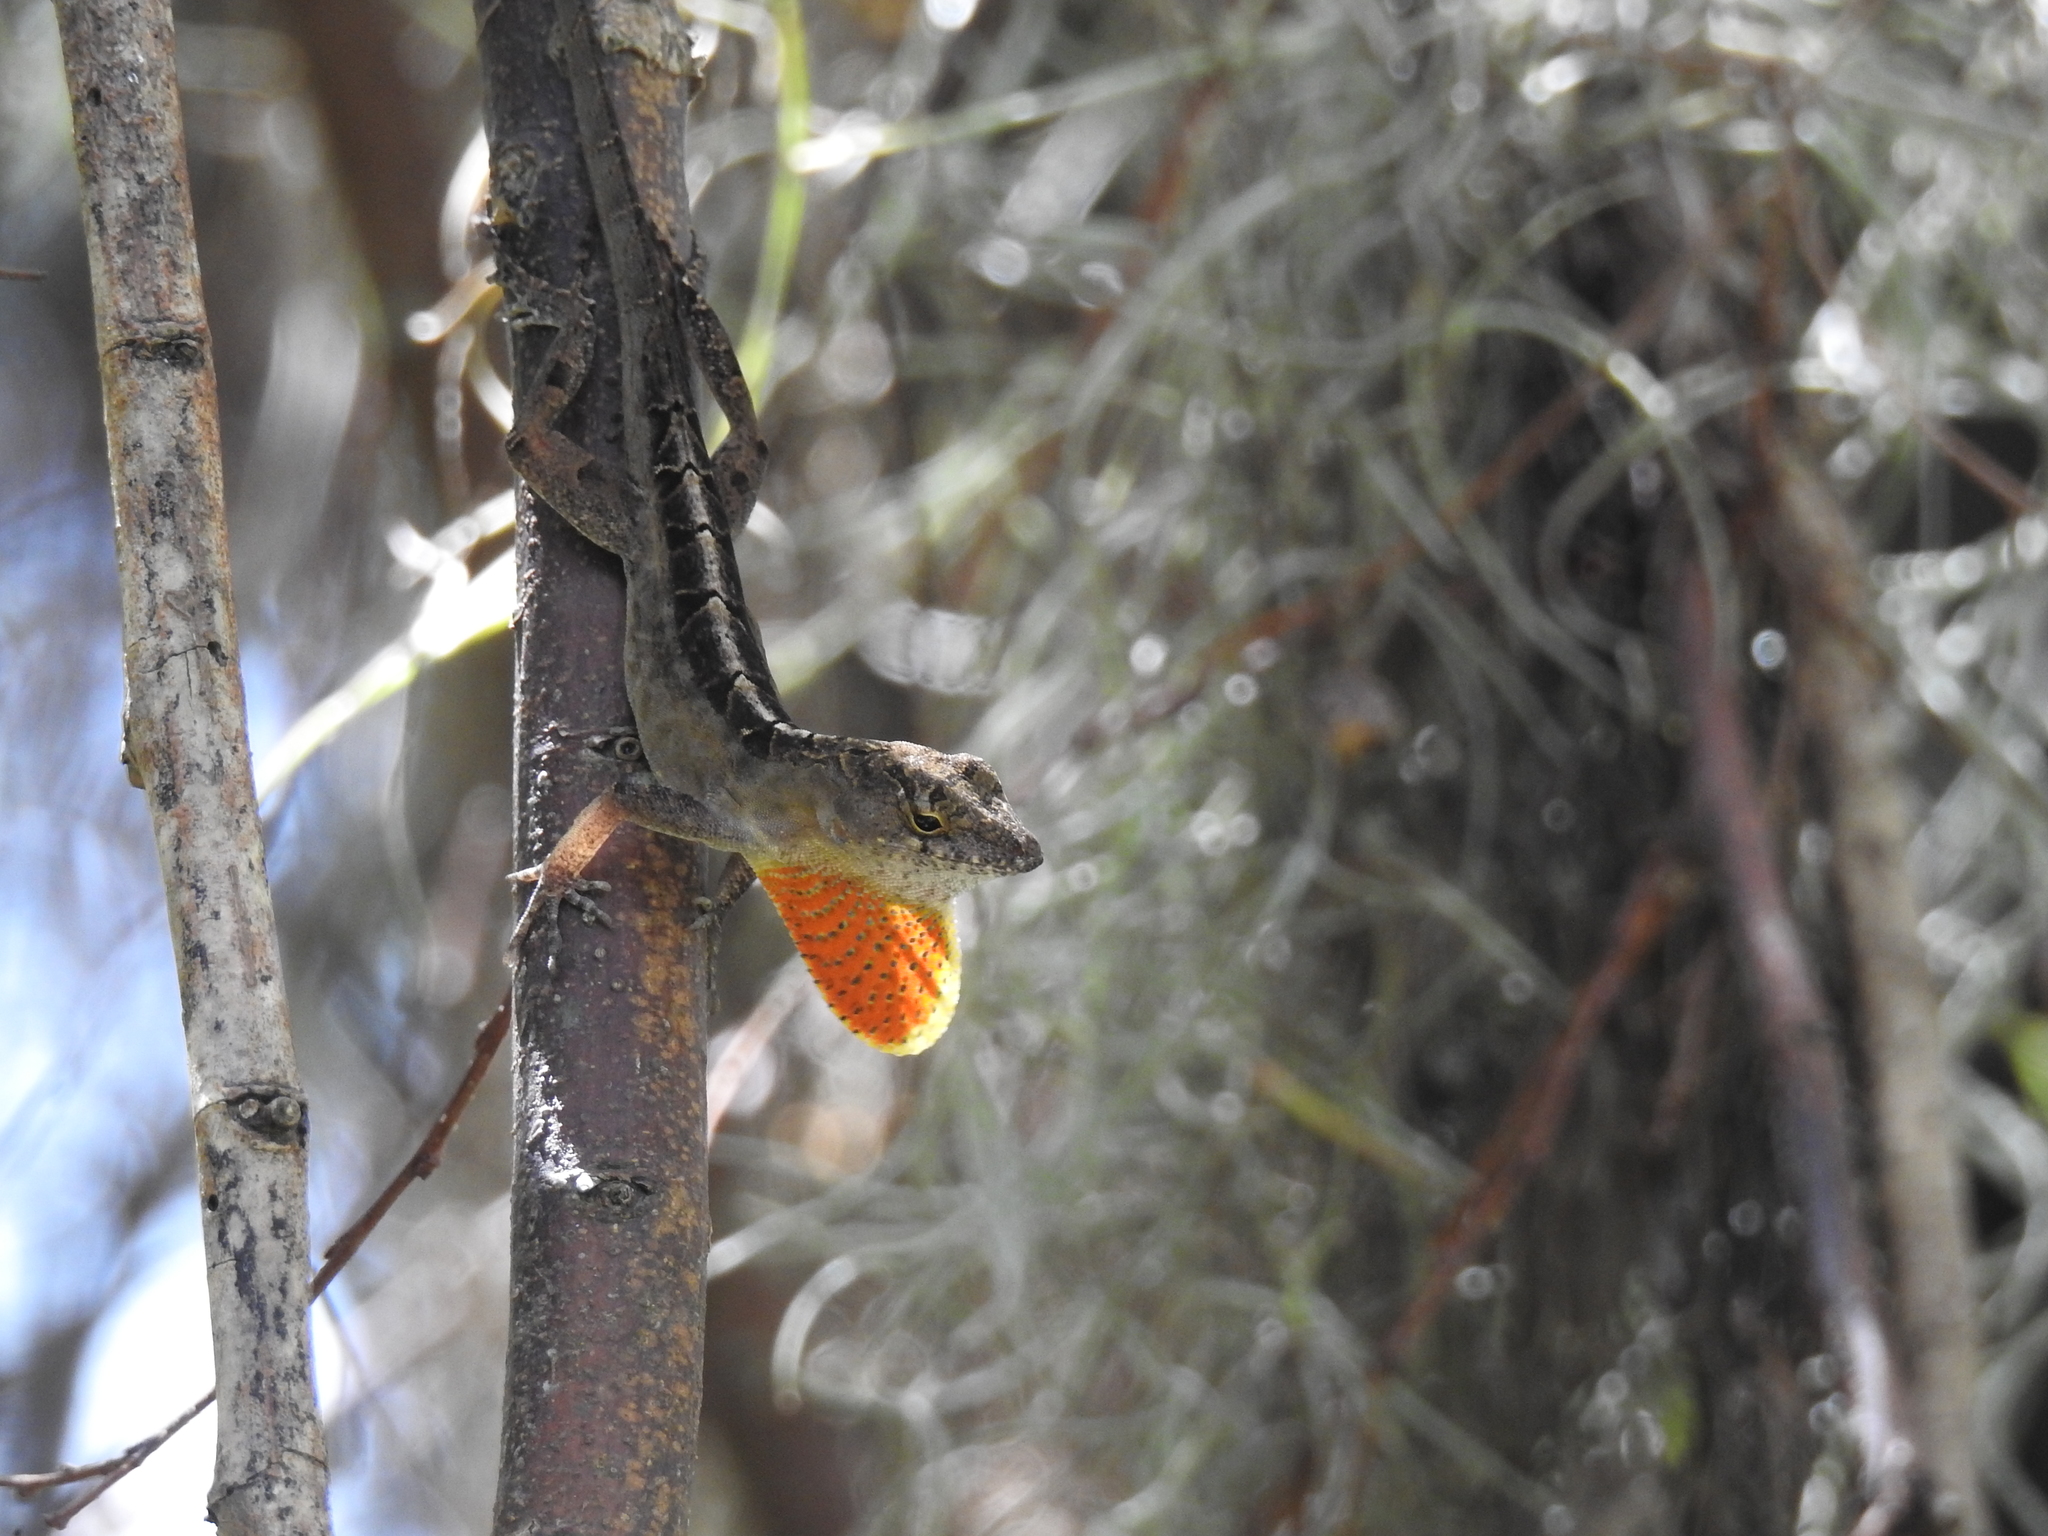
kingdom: Animalia
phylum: Chordata
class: Squamata
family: Dactyloidae
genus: Anolis
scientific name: Anolis sagrei
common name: Brown anole
